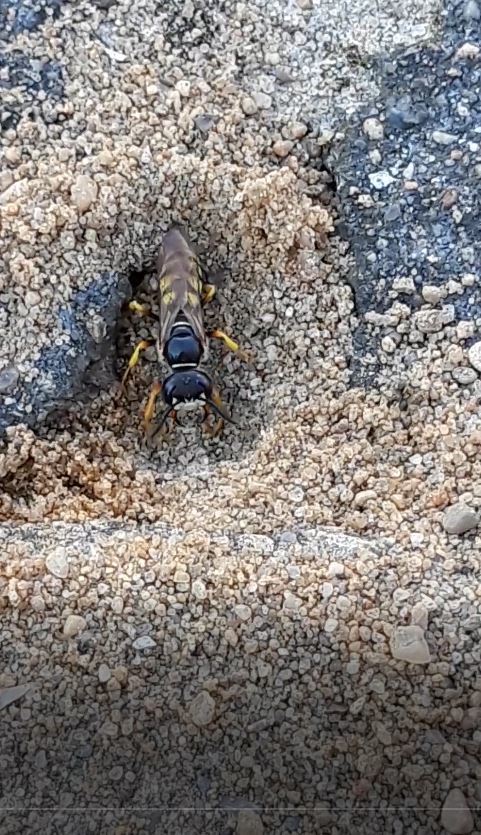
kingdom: Animalia
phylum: Arthropoda
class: Insecta
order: Hymenoptera
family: Crabronidae
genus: Philanthus
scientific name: Philanthus triangulum
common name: Bee wolf
